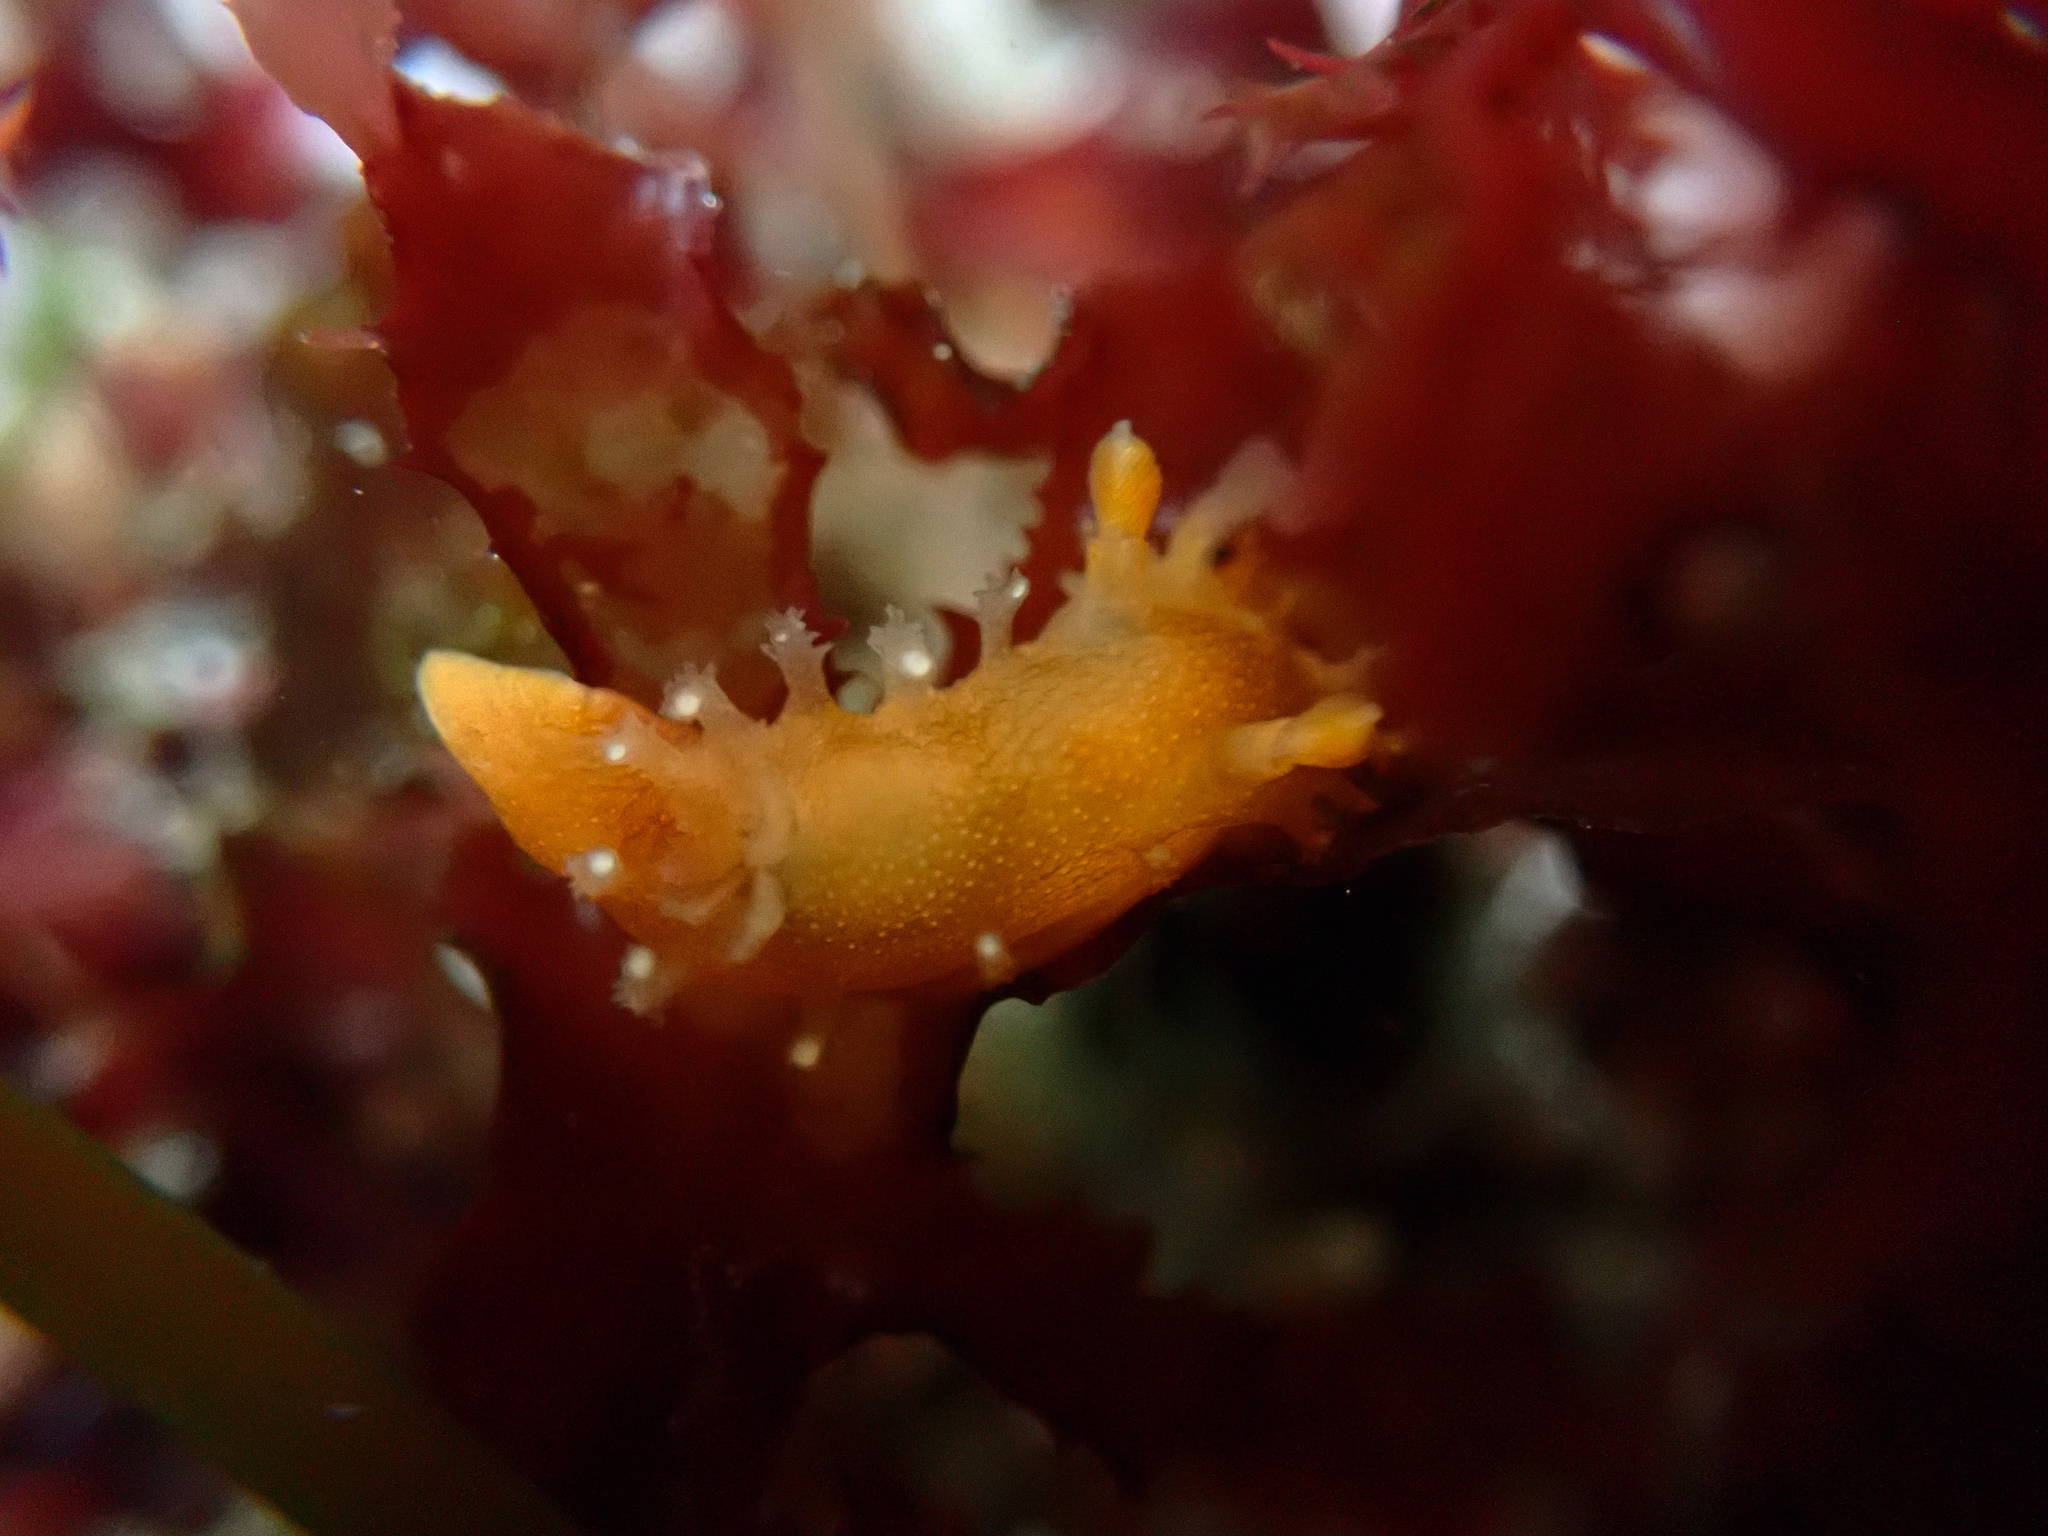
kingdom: Animalia
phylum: Mollusca
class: Gastropoda
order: Nudibranchia
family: Polyceridae
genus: Triopha
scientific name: Triopha maculata
